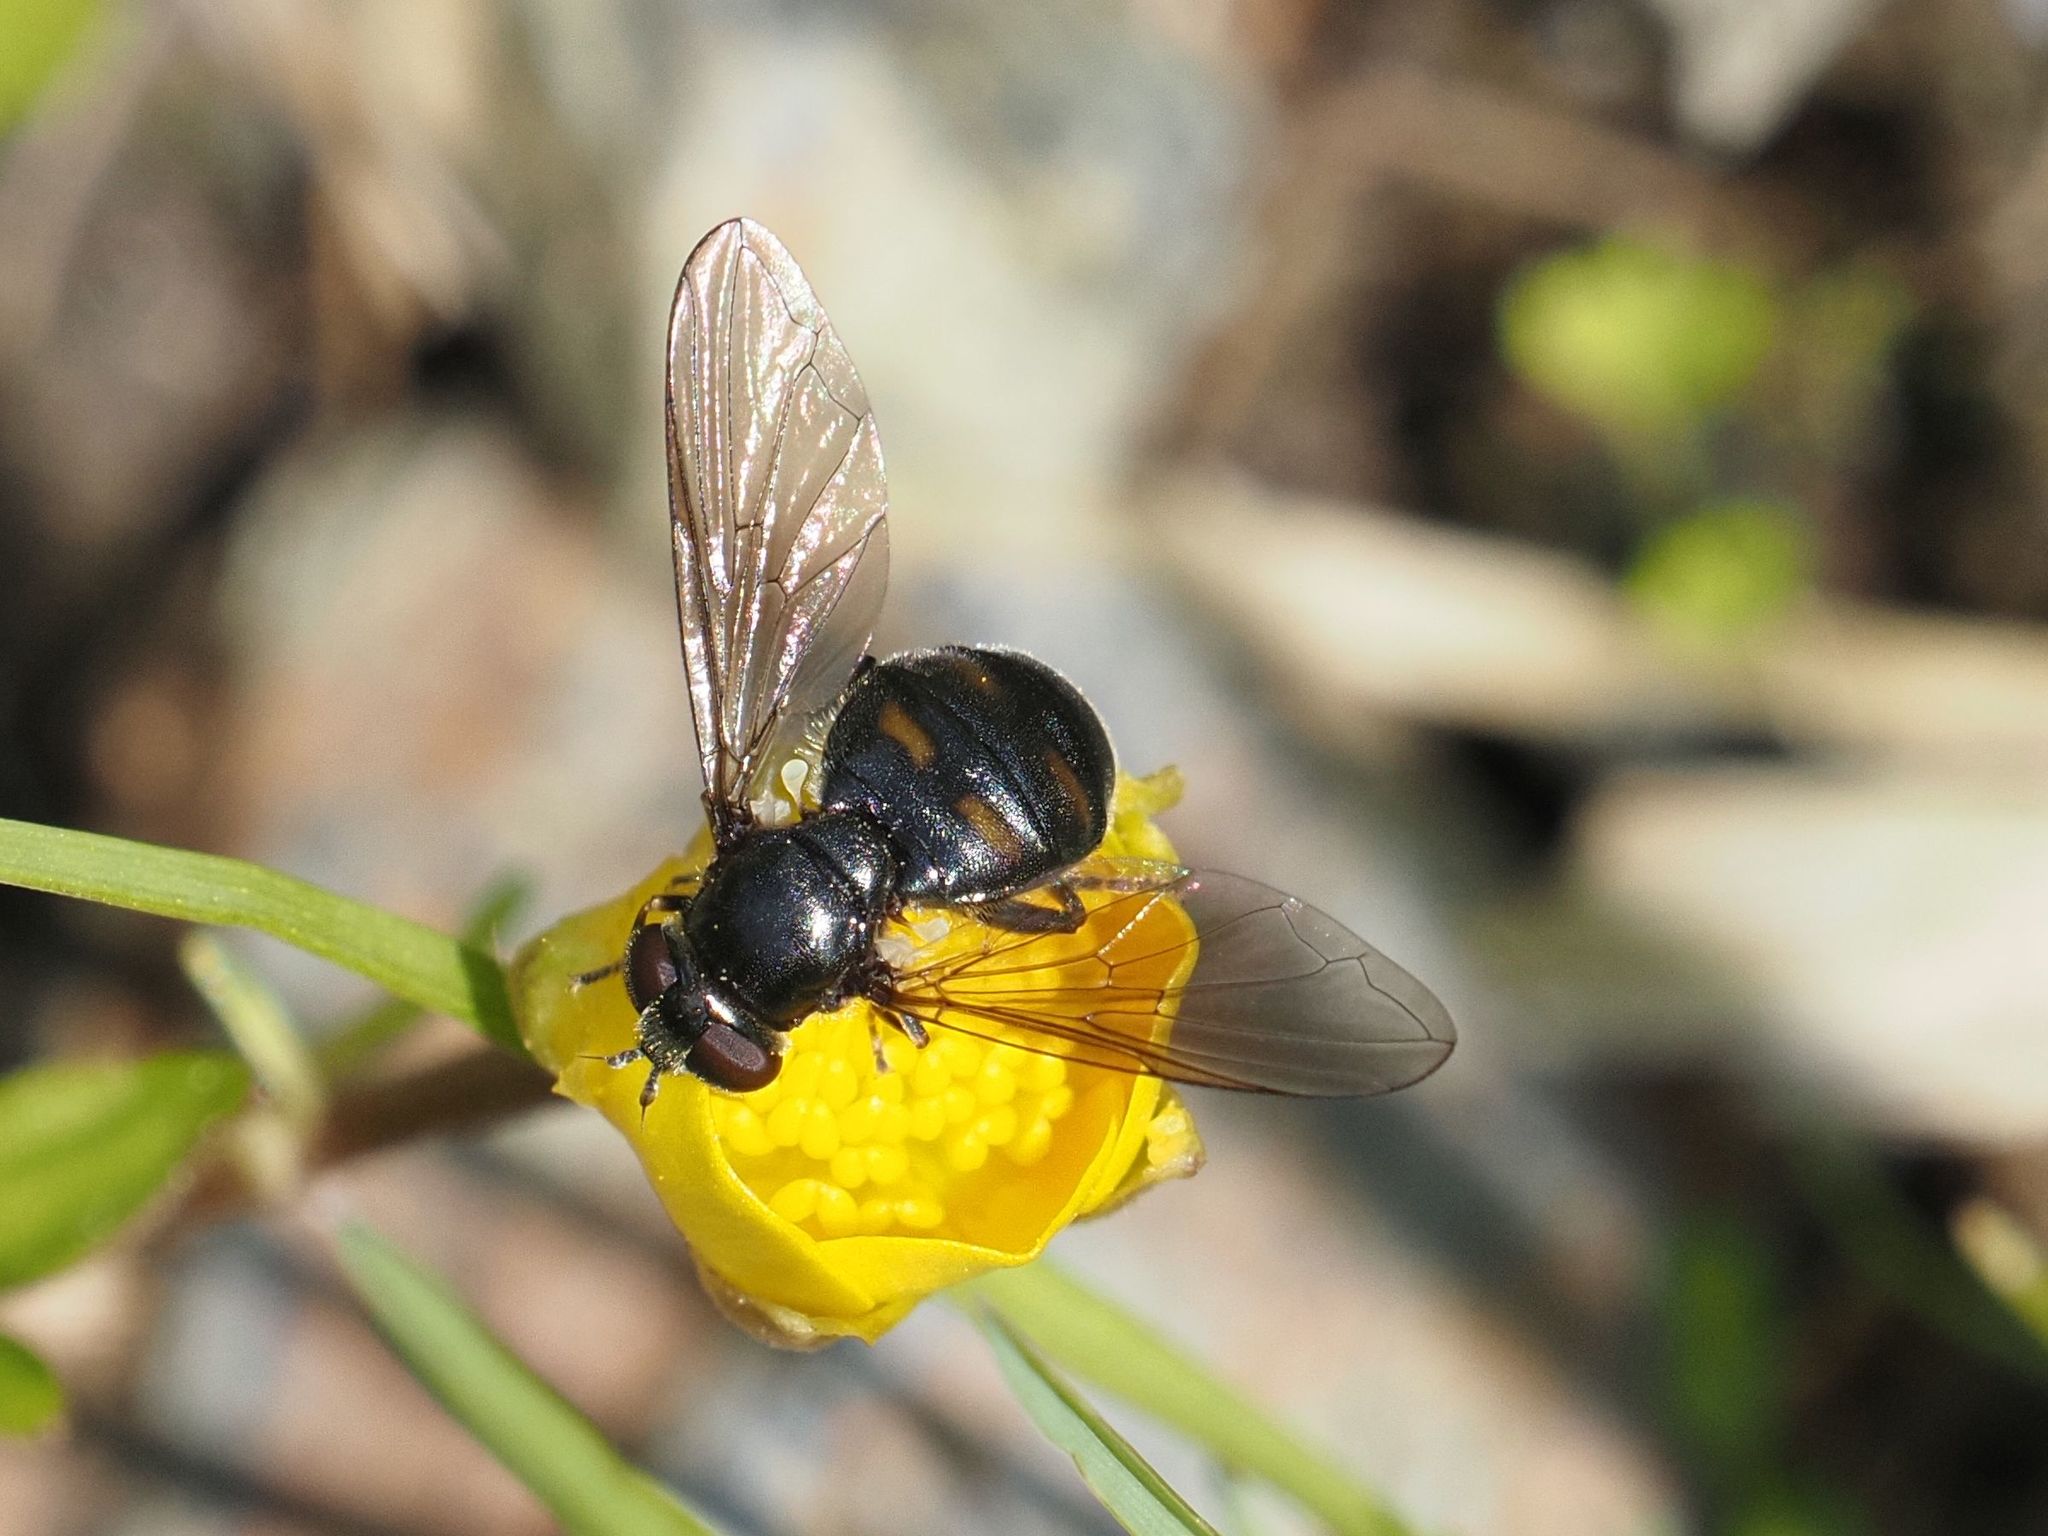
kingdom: Animalia
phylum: Arthropoda
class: Insecta
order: Diptera
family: Syrphidae
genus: Pipiza
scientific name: Pipiza quadrimaculata
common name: Four-spotted pipiza
